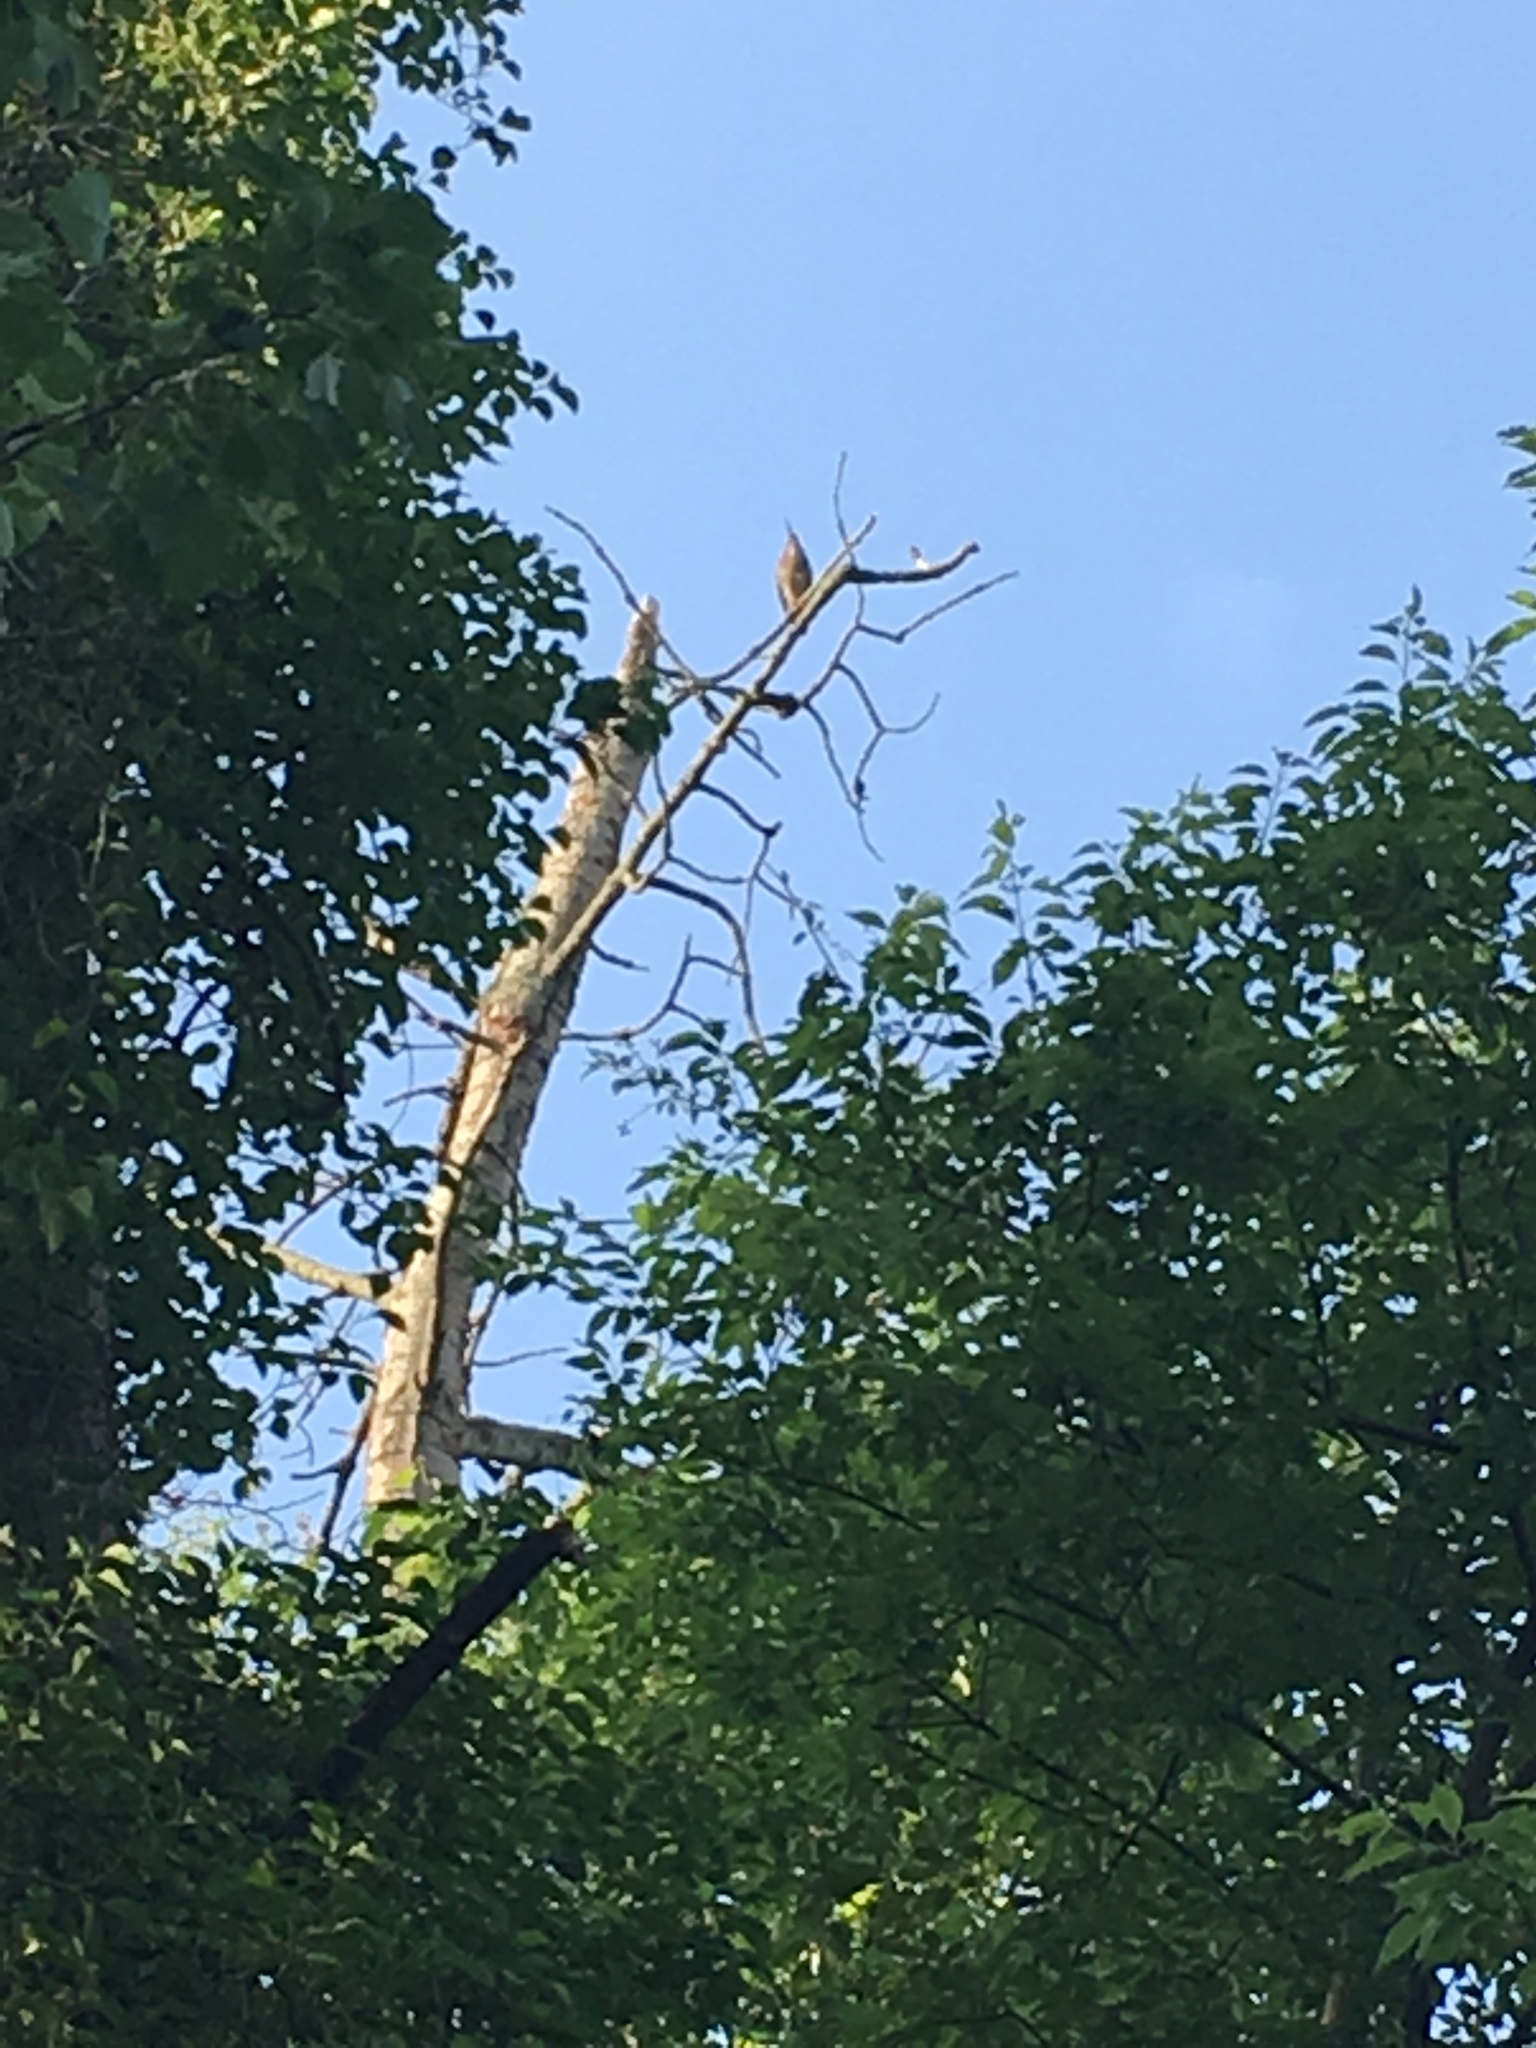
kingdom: Animalia
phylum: Chordata
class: Aves
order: Pelecaniformes
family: Ardeidae
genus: Butorides
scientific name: Butorides virescens
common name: Green heron
